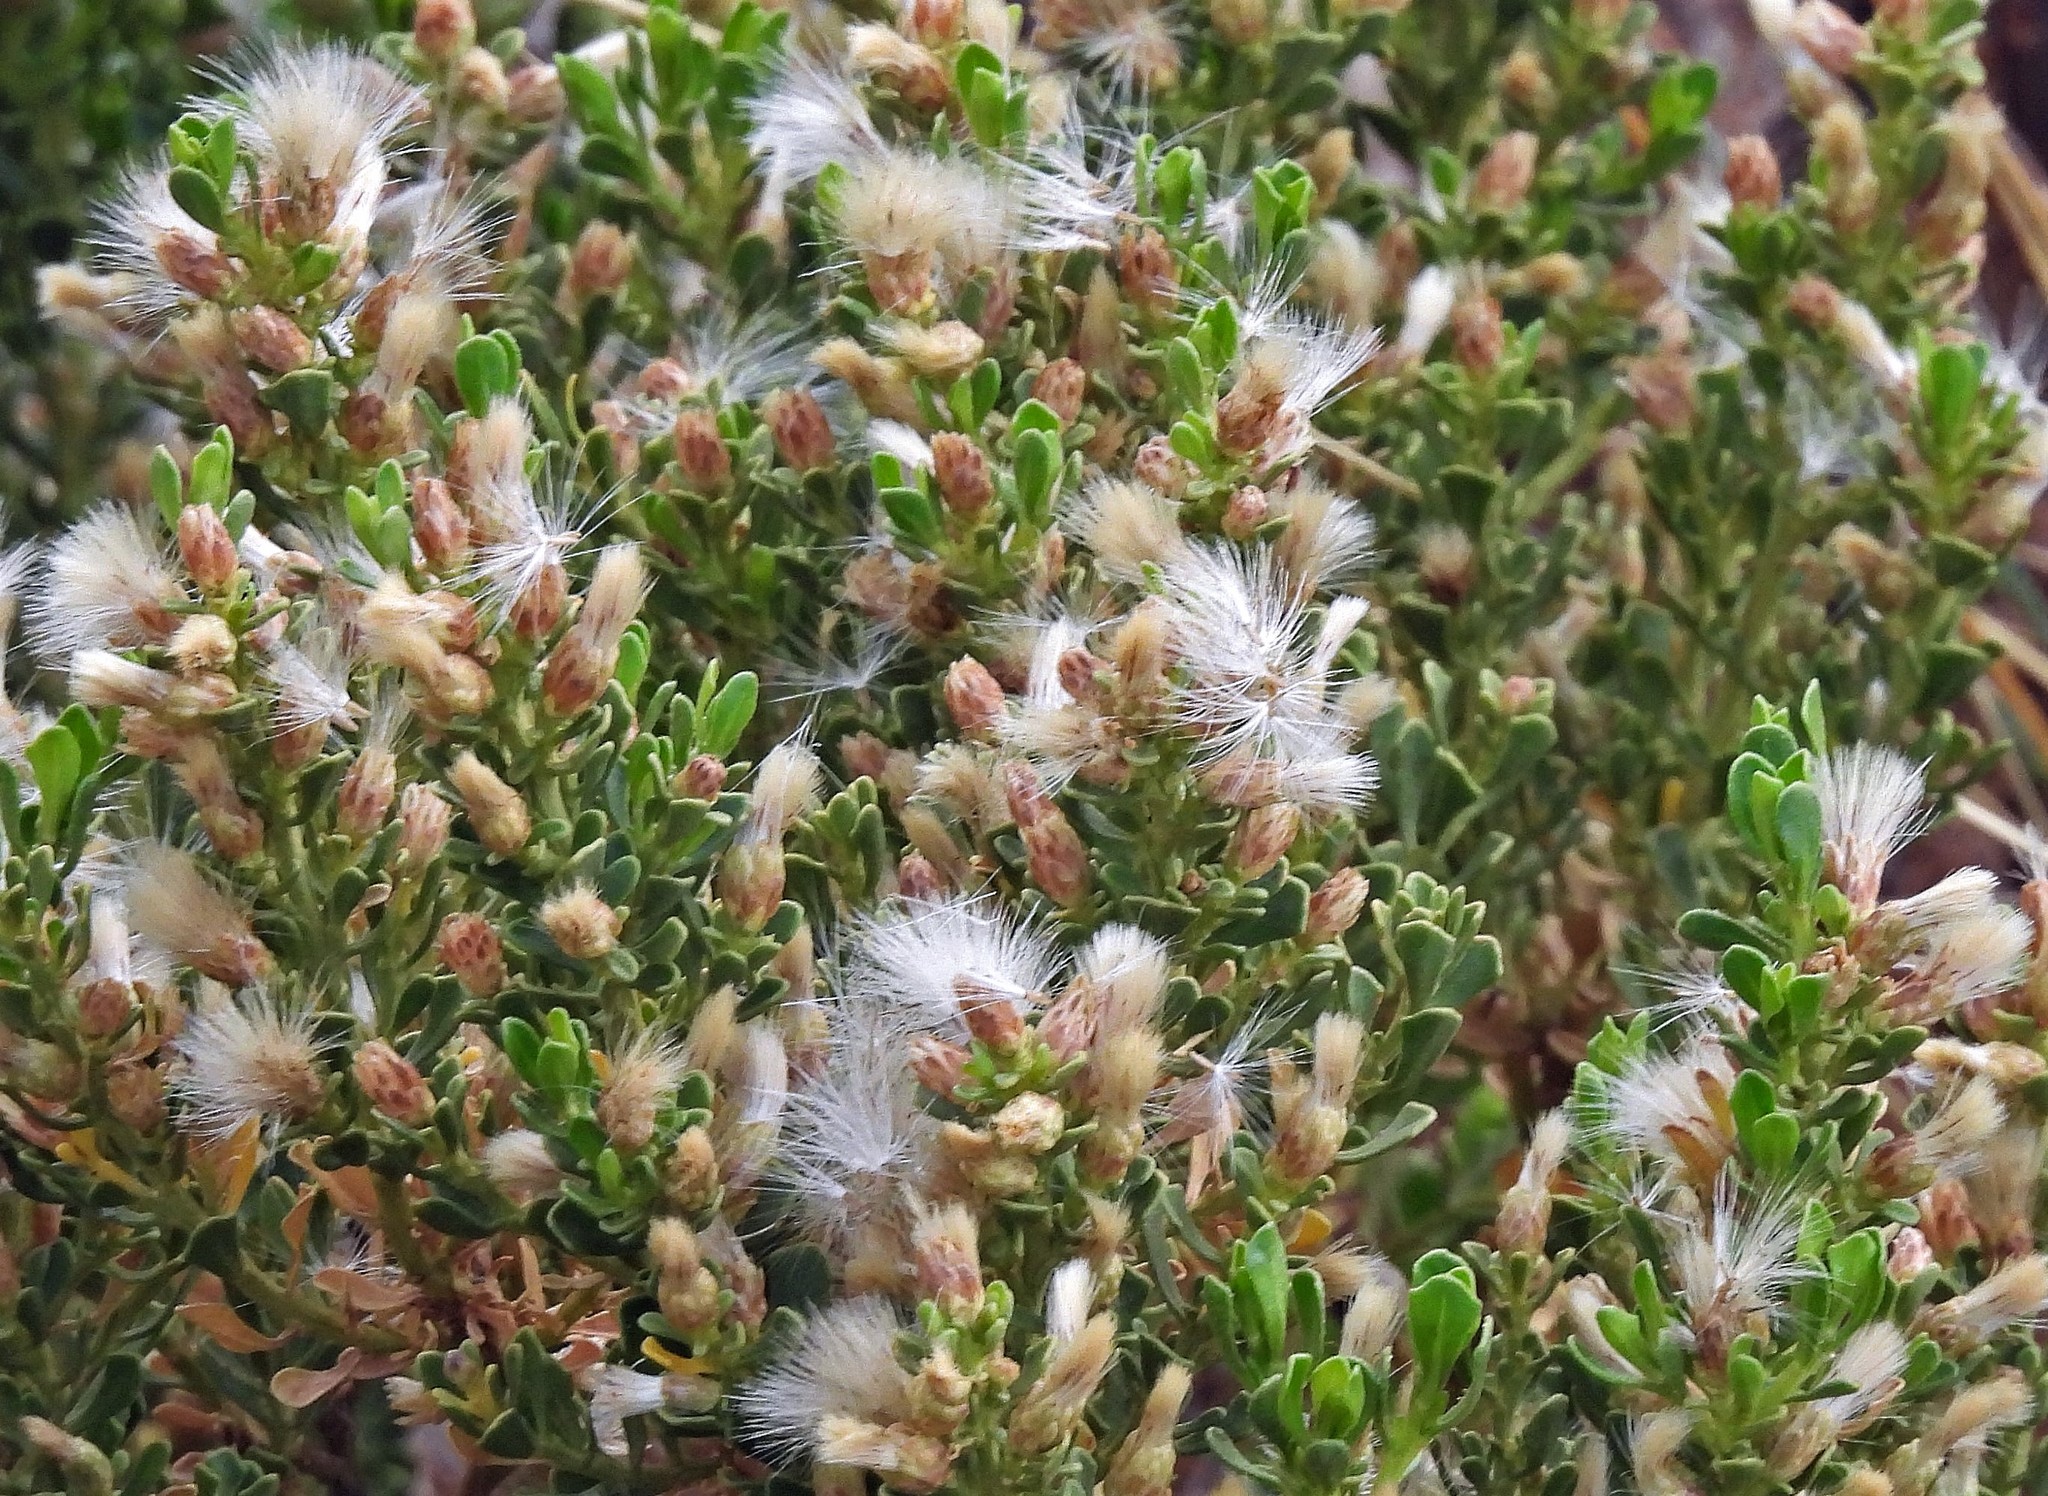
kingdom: Plantae
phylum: Tracheophyta
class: Magnoliopsida
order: Asterales
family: Asteraceae
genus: Baccharis
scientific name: Baccharis tola
